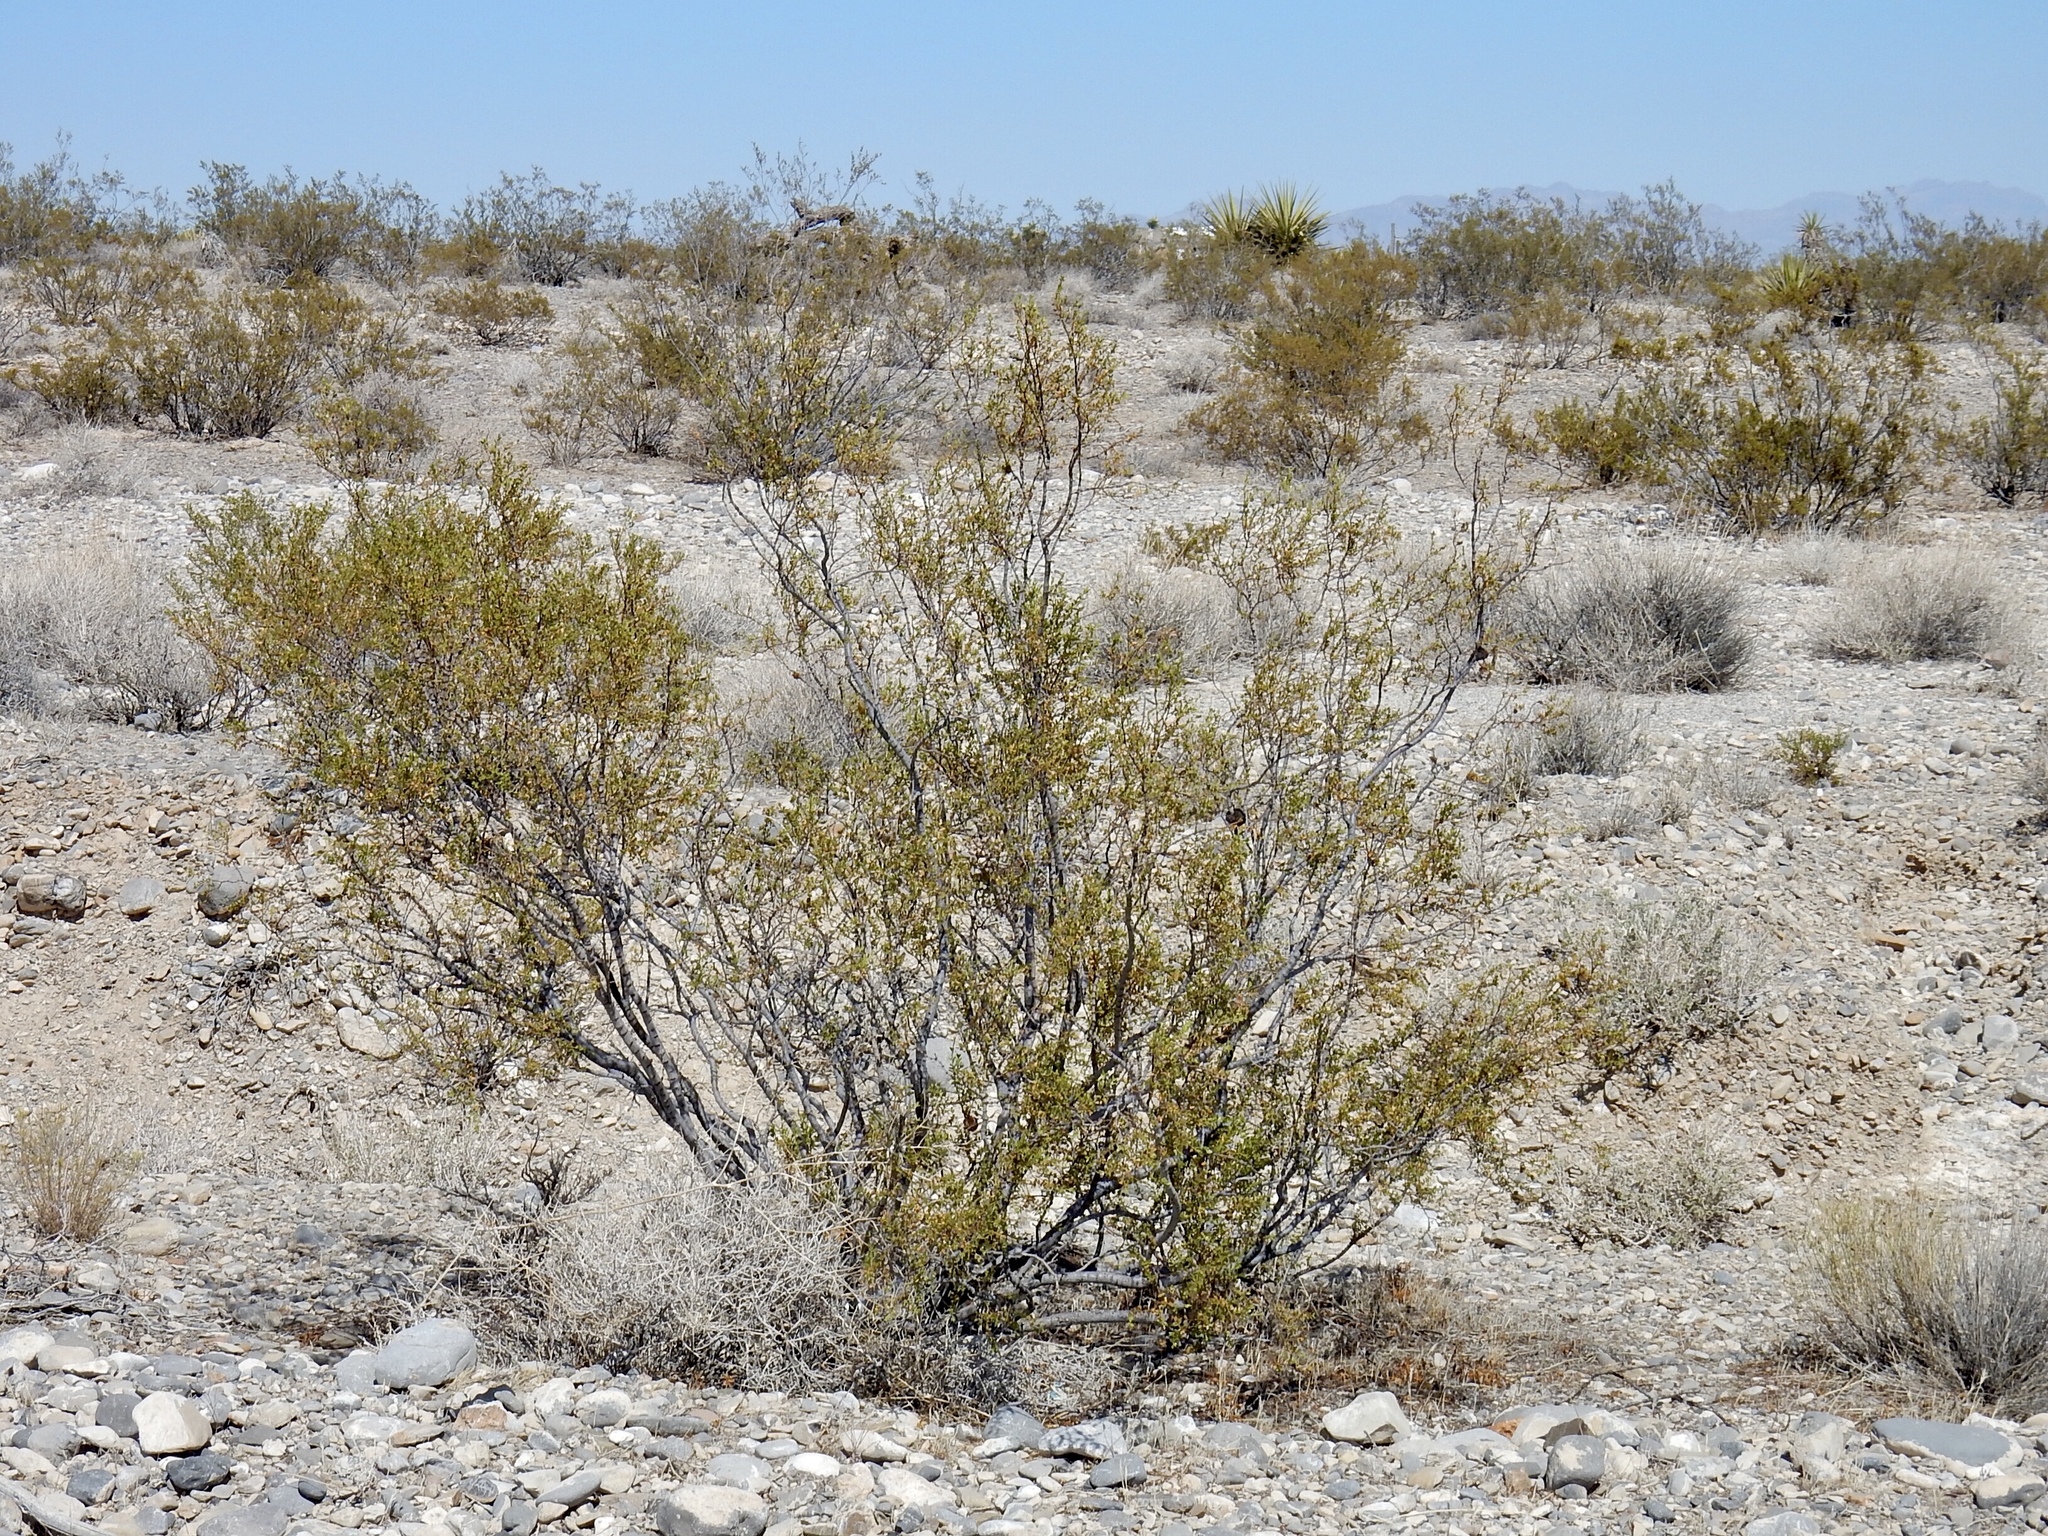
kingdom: Plantae
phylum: Tracheophyta
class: Magnoliopsida
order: Zygophyllales
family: Zygophyllaceae
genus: Larrea
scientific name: Larrea tridentata
